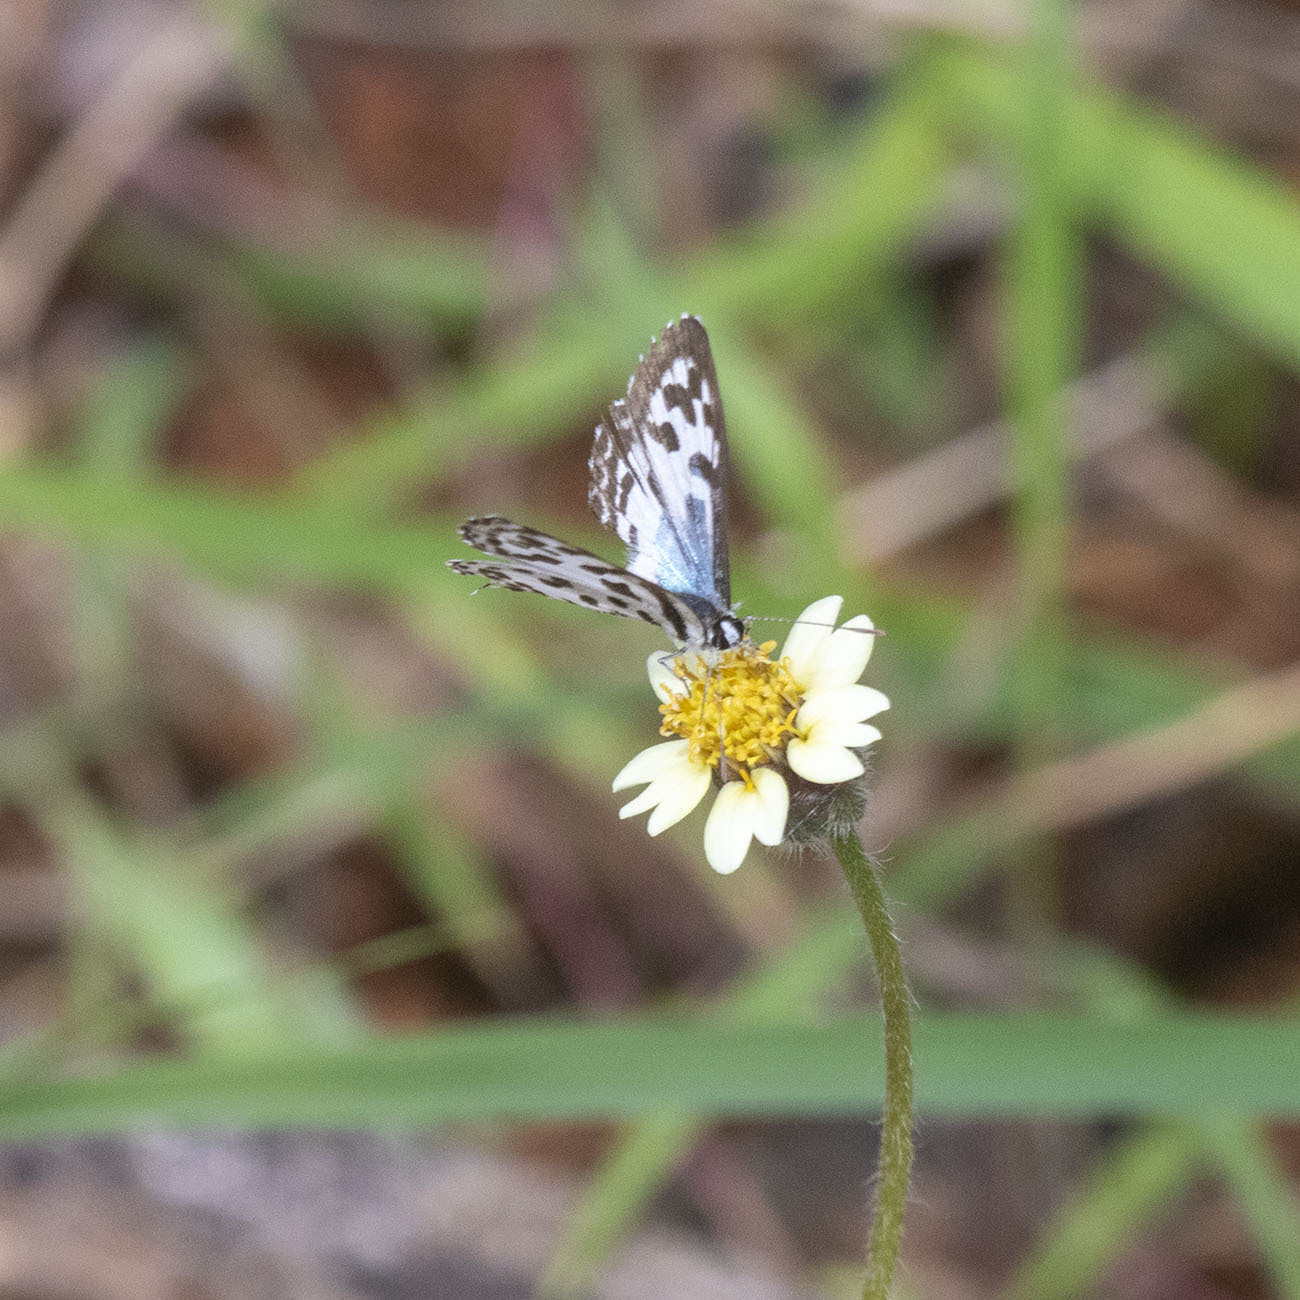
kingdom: Animalia
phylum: Arthropoda
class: Insecta
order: Lepidoptera
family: Lycaenidae
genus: Castalius
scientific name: Castalius rosimon
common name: Common pierrot
